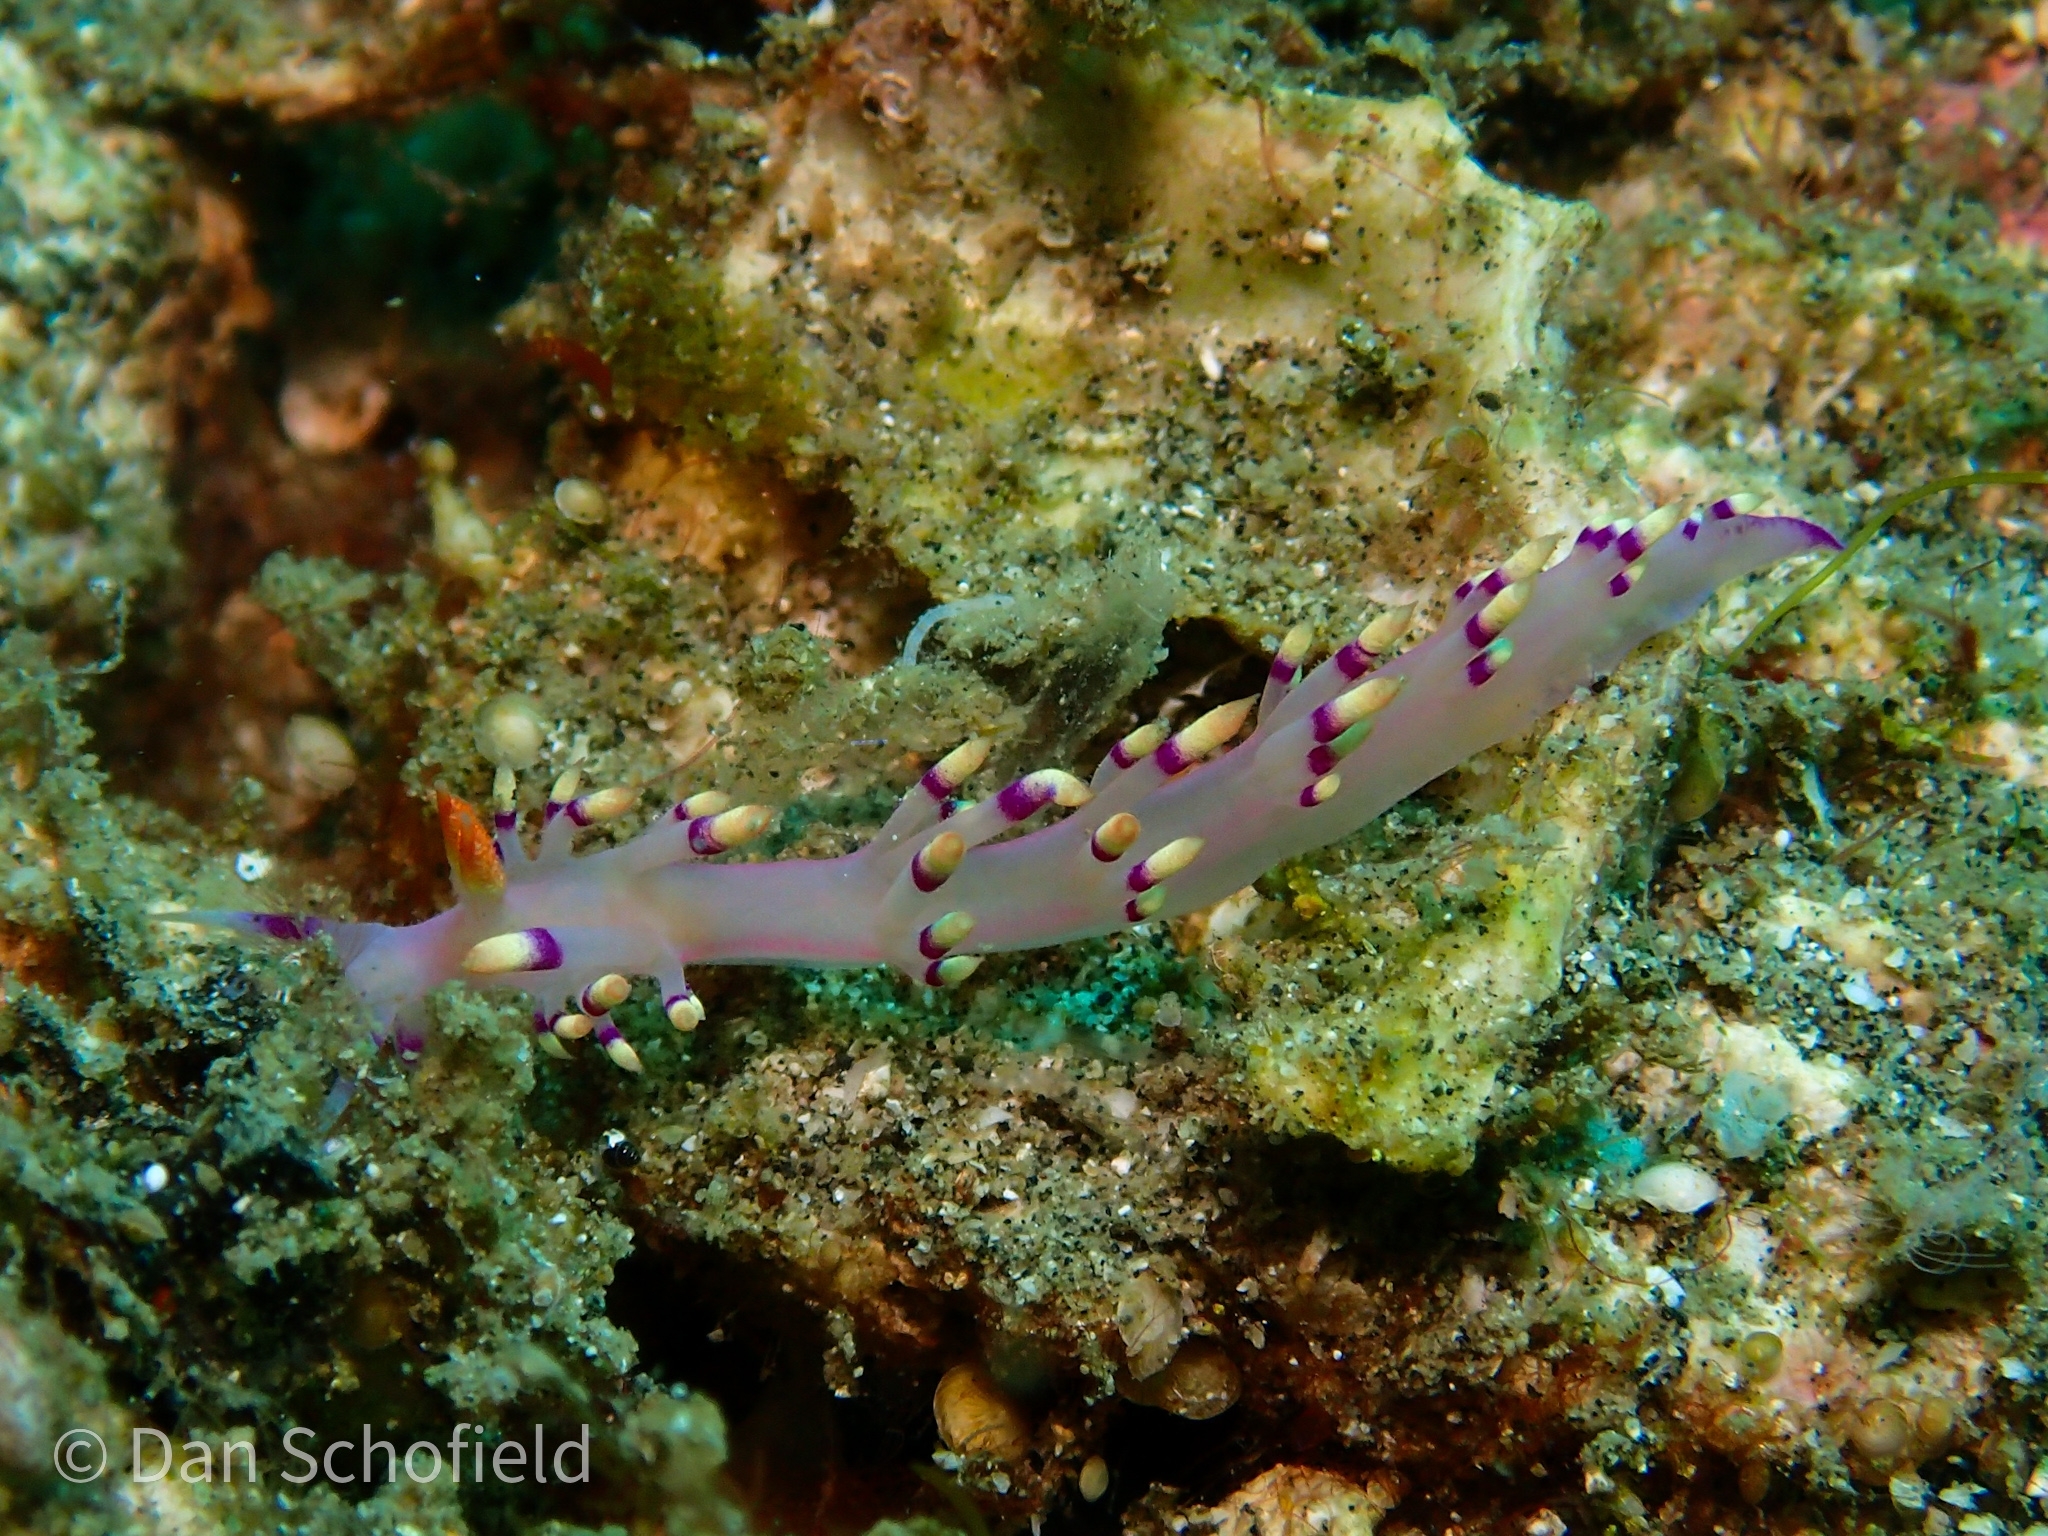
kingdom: Animalia
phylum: Mollusca
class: Gastropoda
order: Nudibranchia
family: Flabellinidae
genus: Coryphellina
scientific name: Coryphellina exoptata
